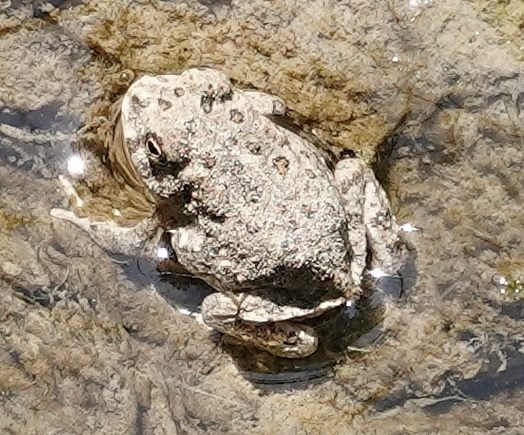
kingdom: Animalia
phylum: Chordata
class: Amphibia
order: Anura
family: Bufonidae
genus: Anaxyrus
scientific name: Anaxyrus woodhousii
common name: Woodhouse's toad
